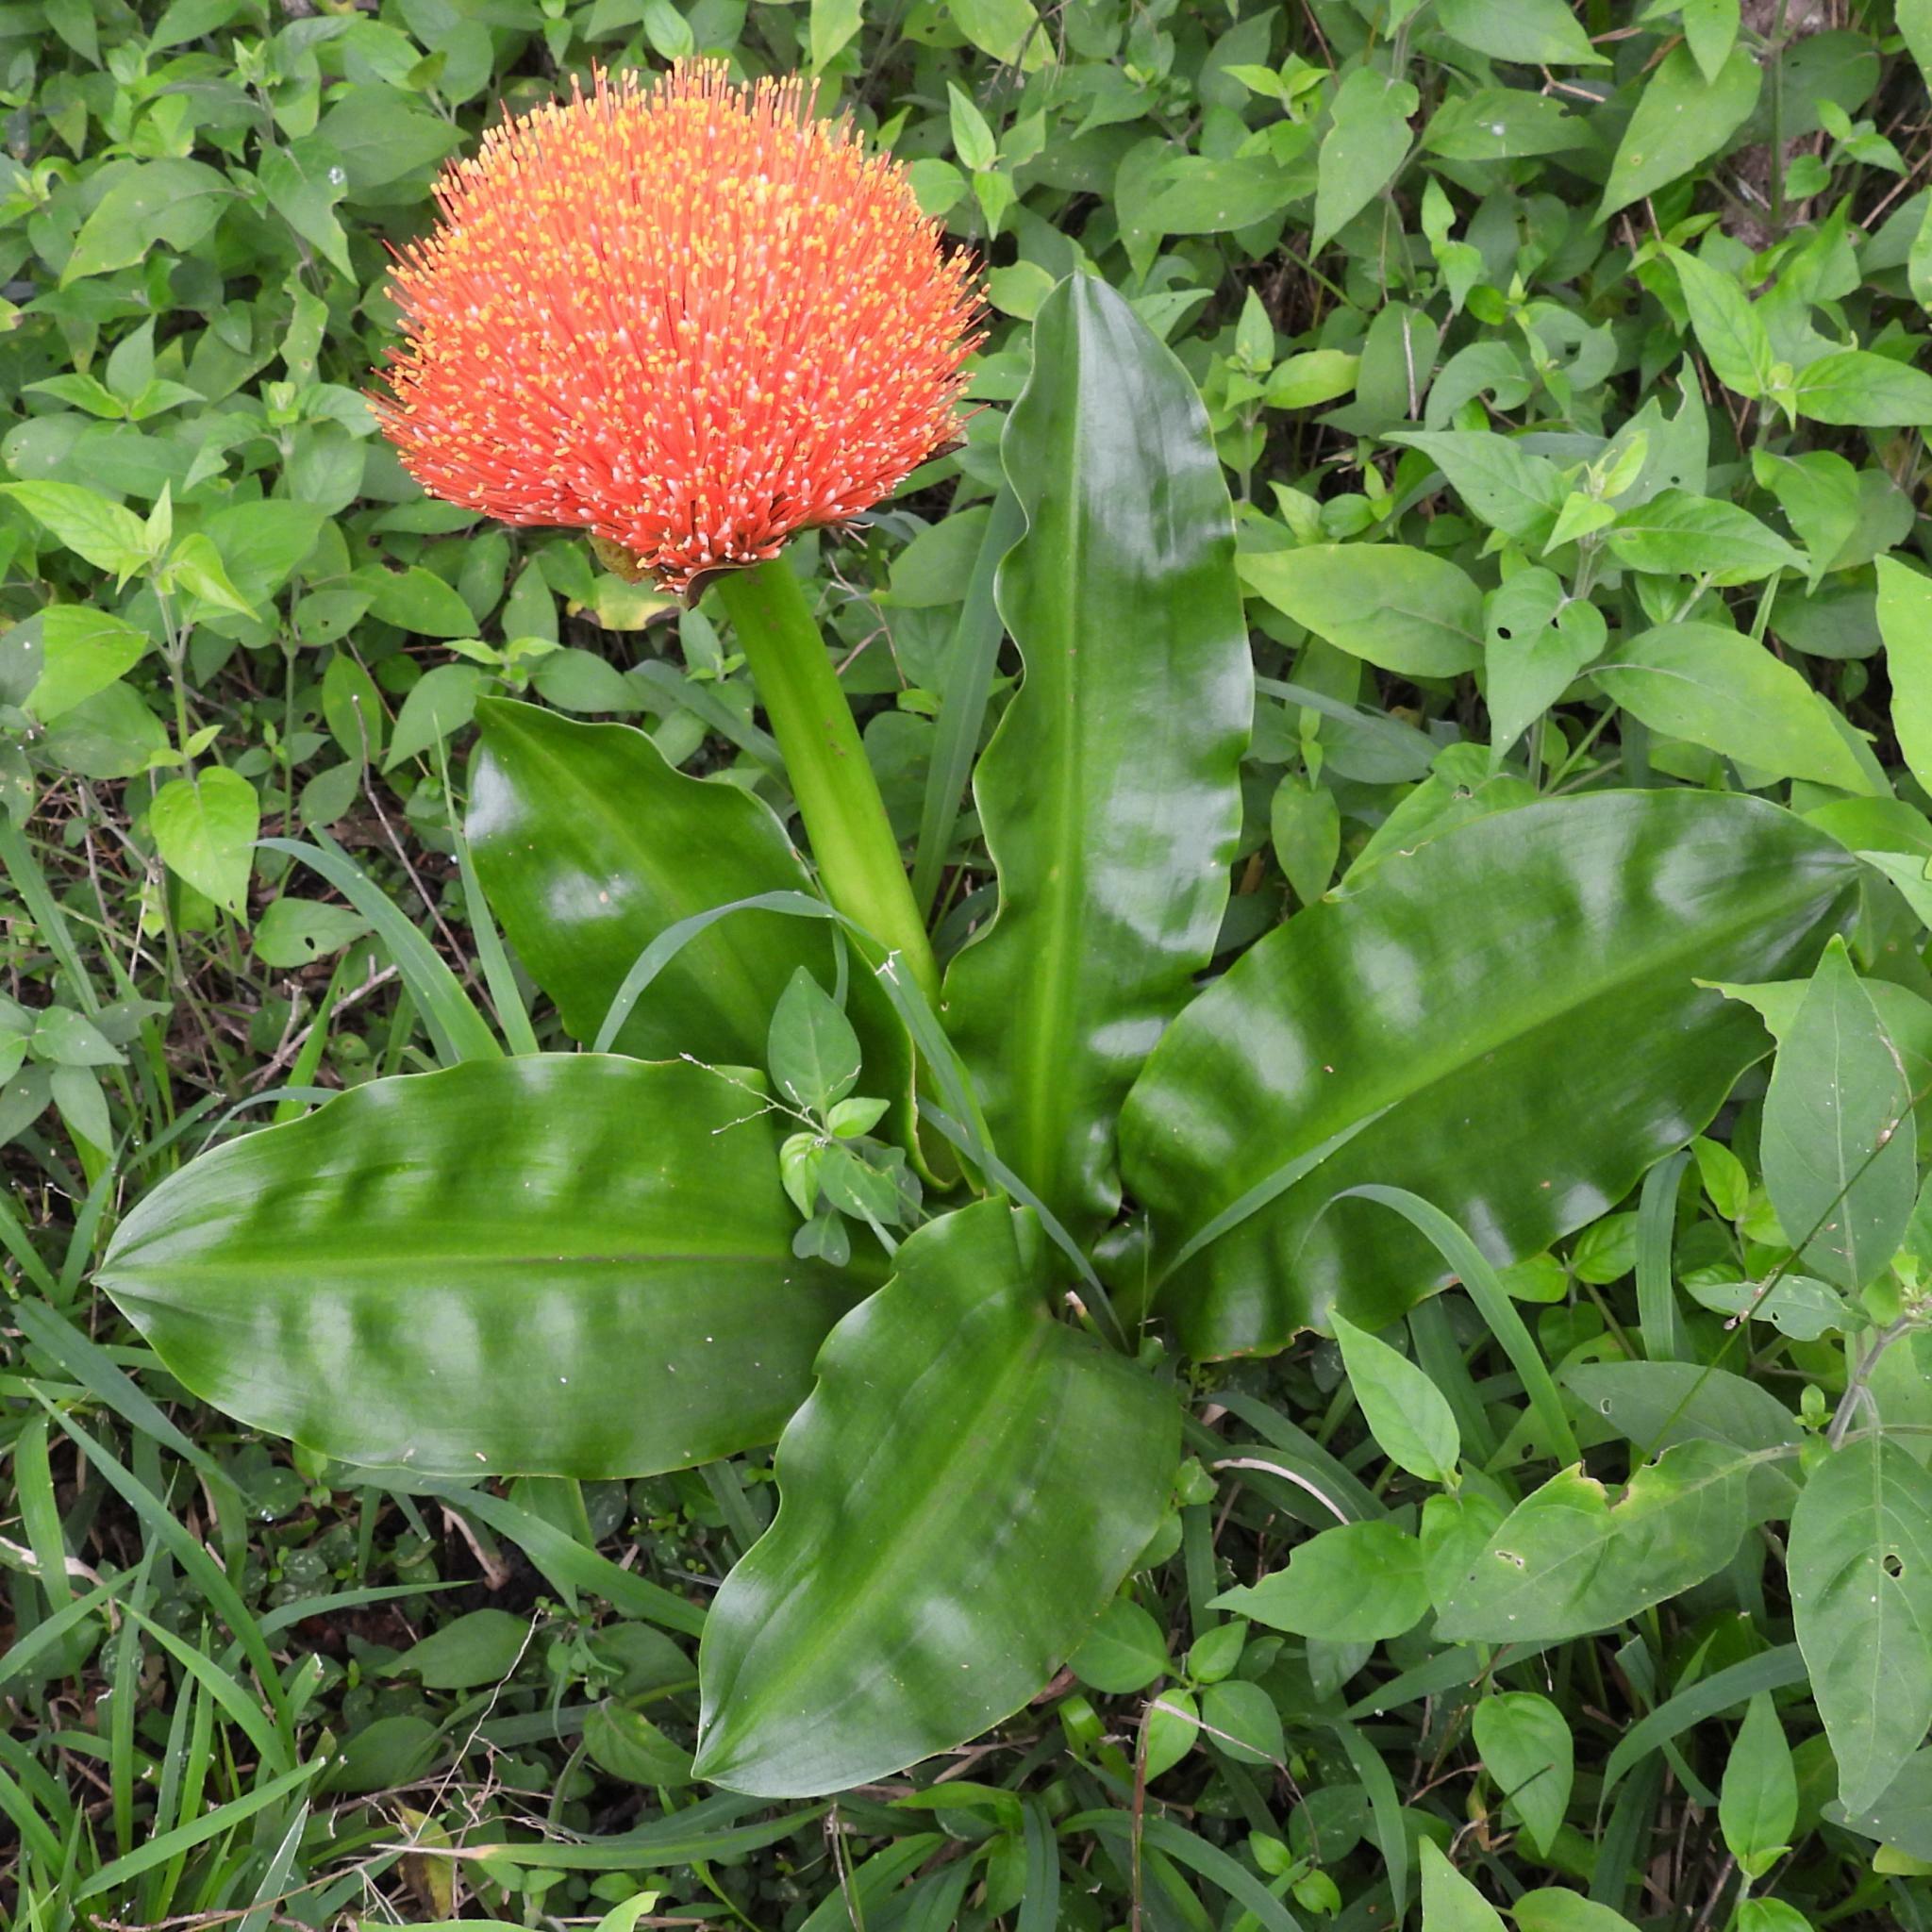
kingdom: Plantae
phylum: Tracheophyta
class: Liliopsida
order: Asparagales
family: Amaryllidaceae
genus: Scadoxus
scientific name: Scadoxus puniceus
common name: Royal-paintbrush
